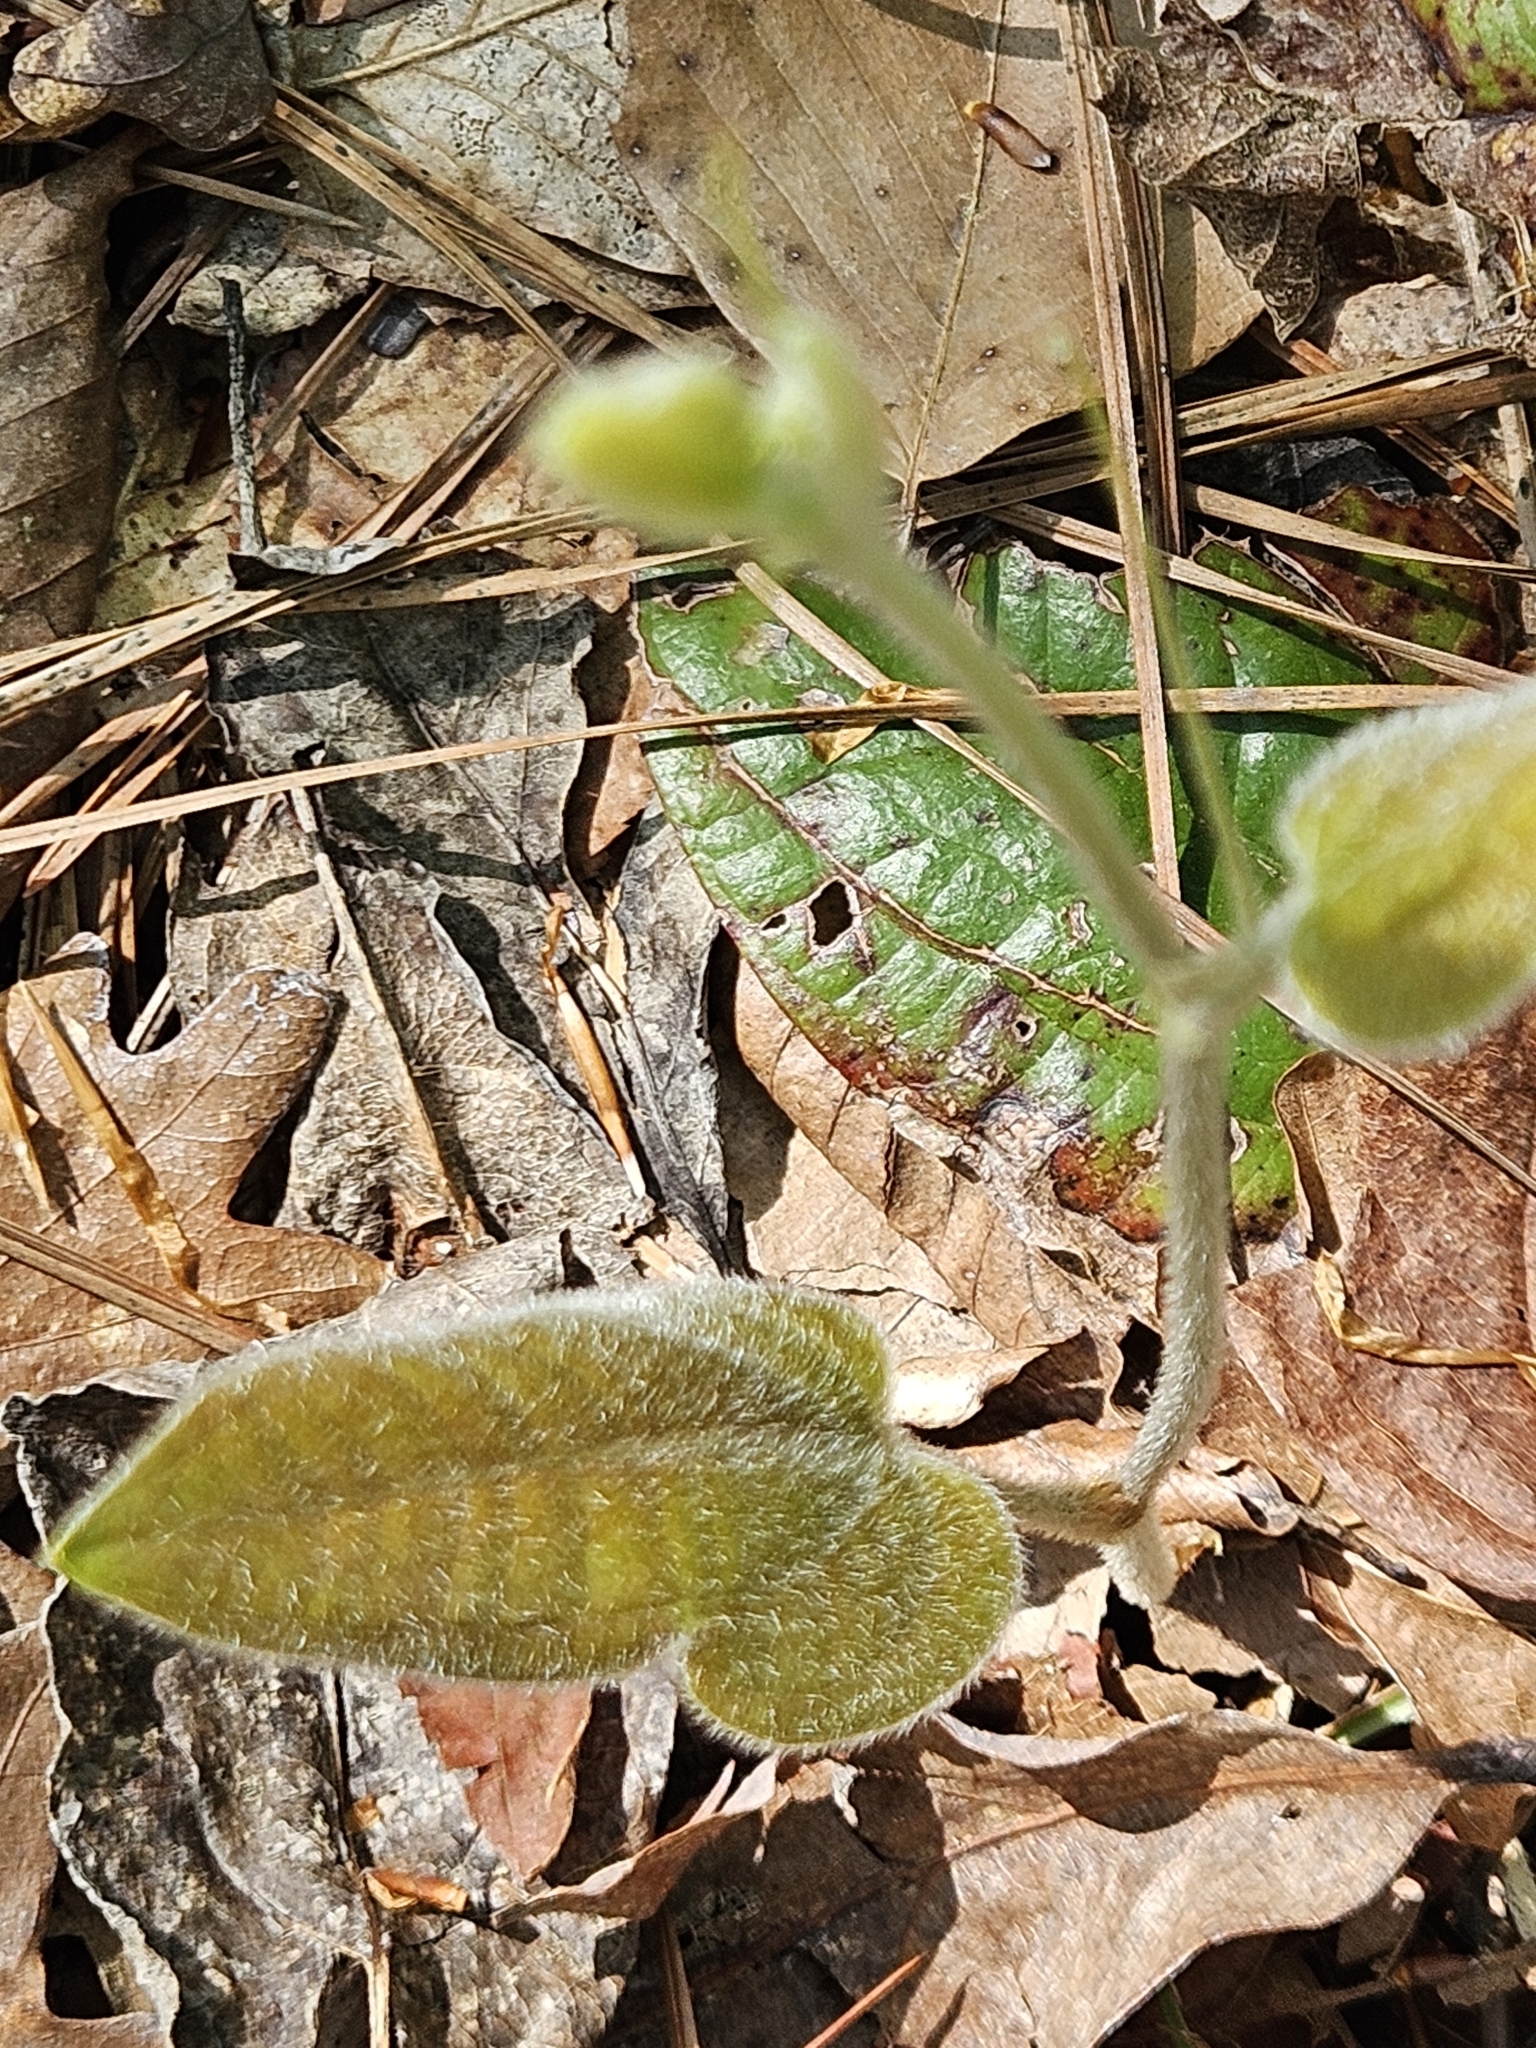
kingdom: Plantae
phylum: Tracheophyta
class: Liliopsida
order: Liliales
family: Smilacaceae
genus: Smilax
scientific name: Smilax pumila
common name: Sarsaparilla-vine
